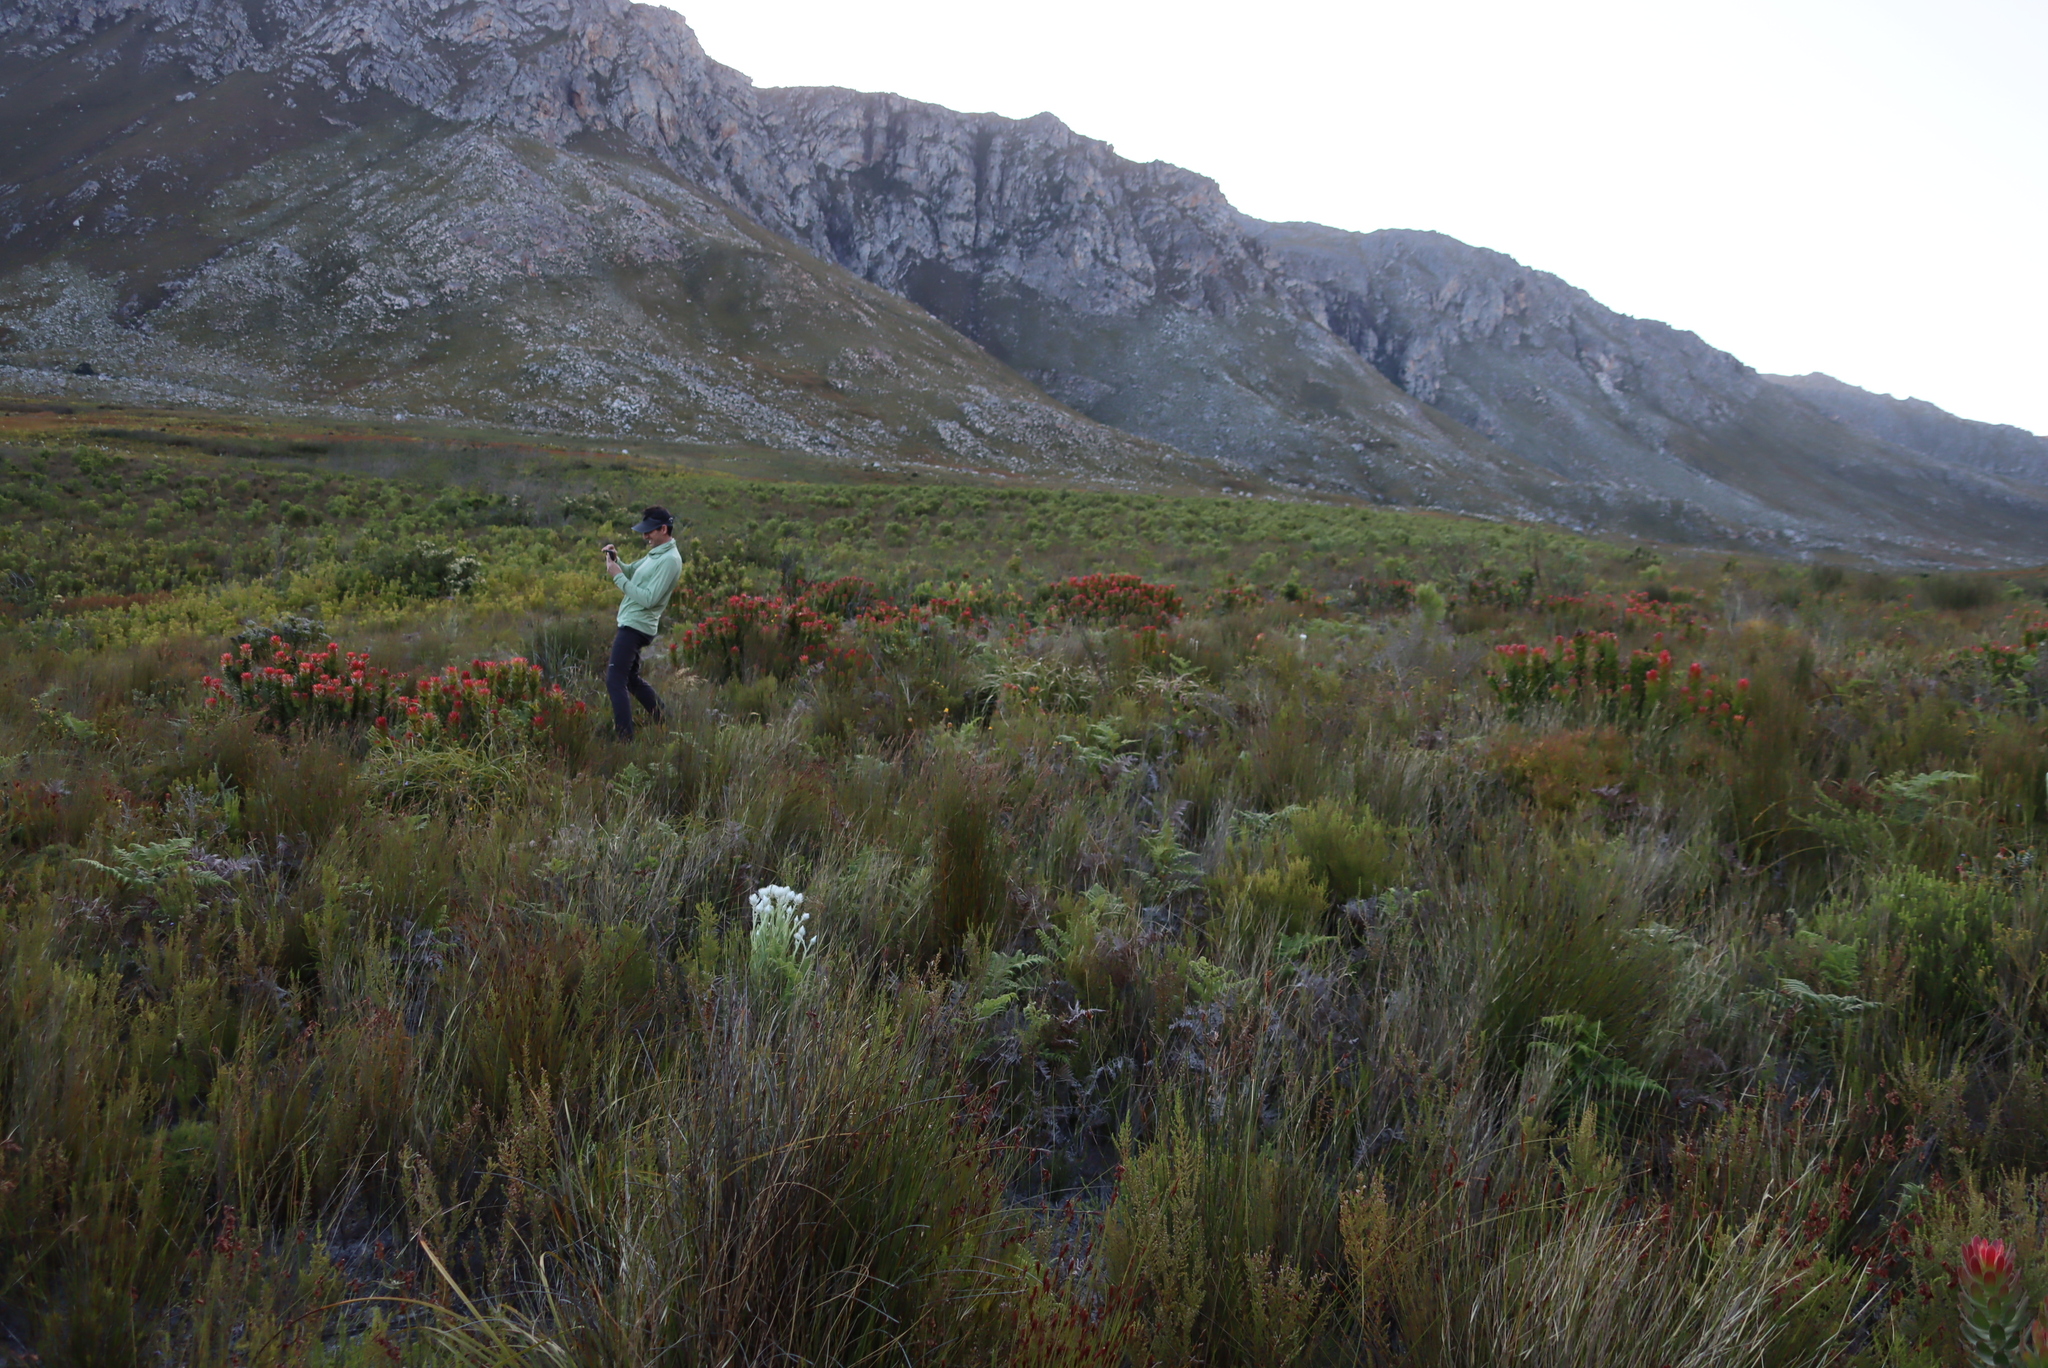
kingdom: Plantae
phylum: Tracheophyta
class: Magnoliopsida
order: Proteales
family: Proteaceae
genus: Mimetes
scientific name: Mimetes cucullatus
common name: Common pagoda
